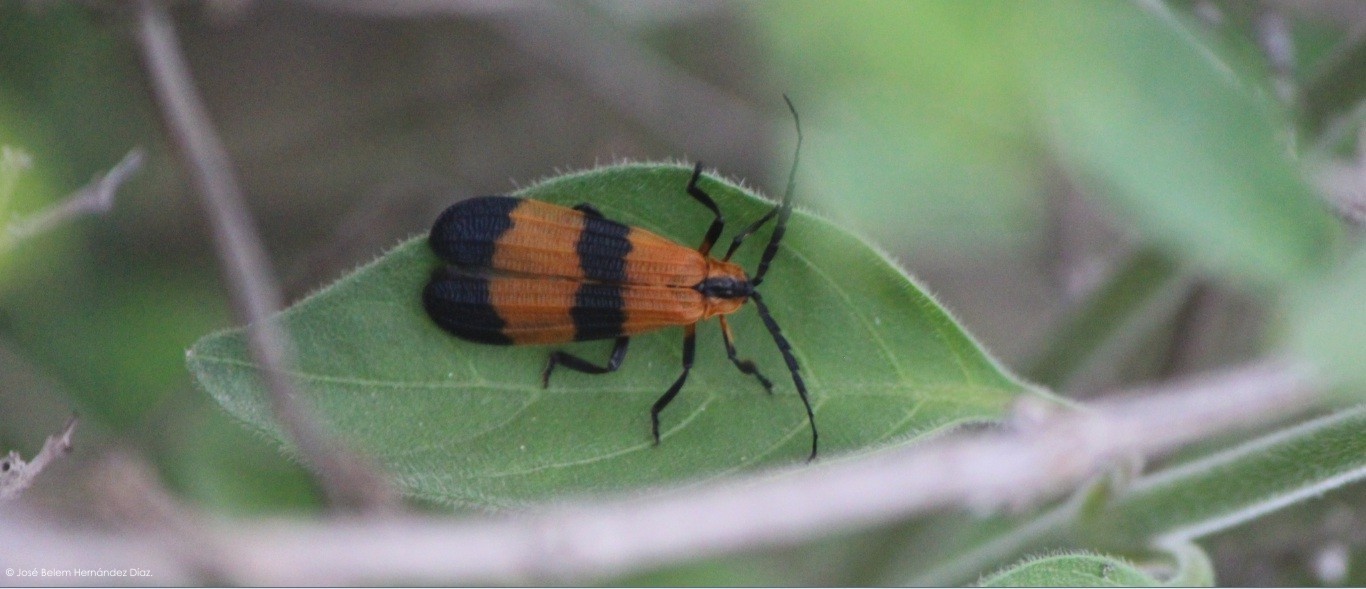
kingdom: Animalia
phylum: Arthropoda
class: Insecta
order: Coleoptera
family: Lycidae
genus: Calopteron
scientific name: Calopteron reticulatum
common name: Banded net-winged beetle
